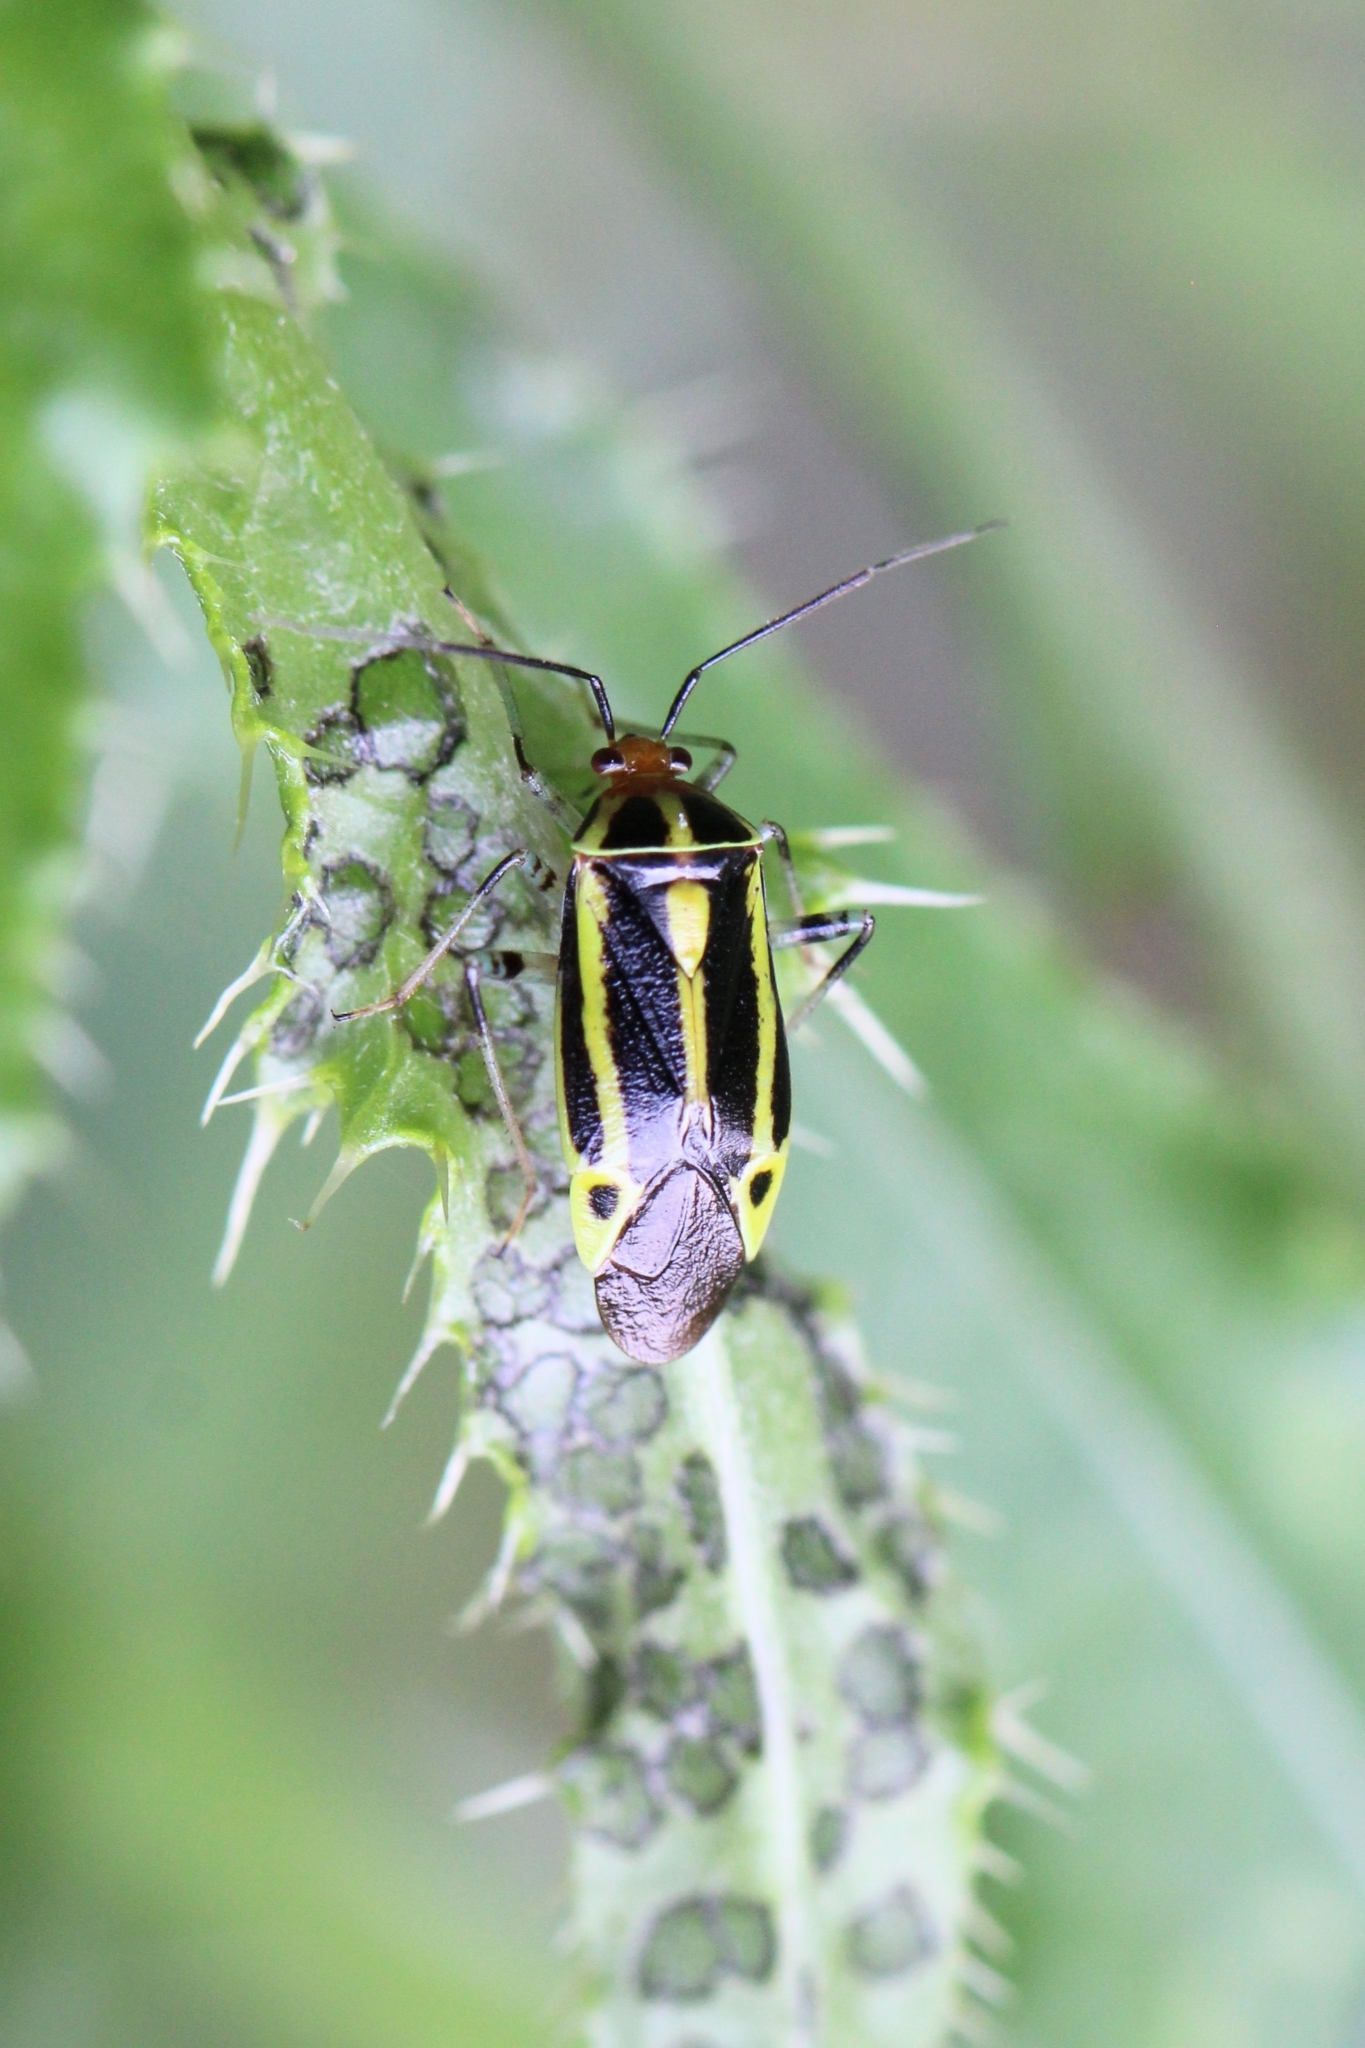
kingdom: Animalia
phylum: Arthropoda
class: Insecta
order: Hemiptera
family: Miridae
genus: Poecilocapsus
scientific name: Poecilocapsus lineatus
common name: Four-lined plant bug
